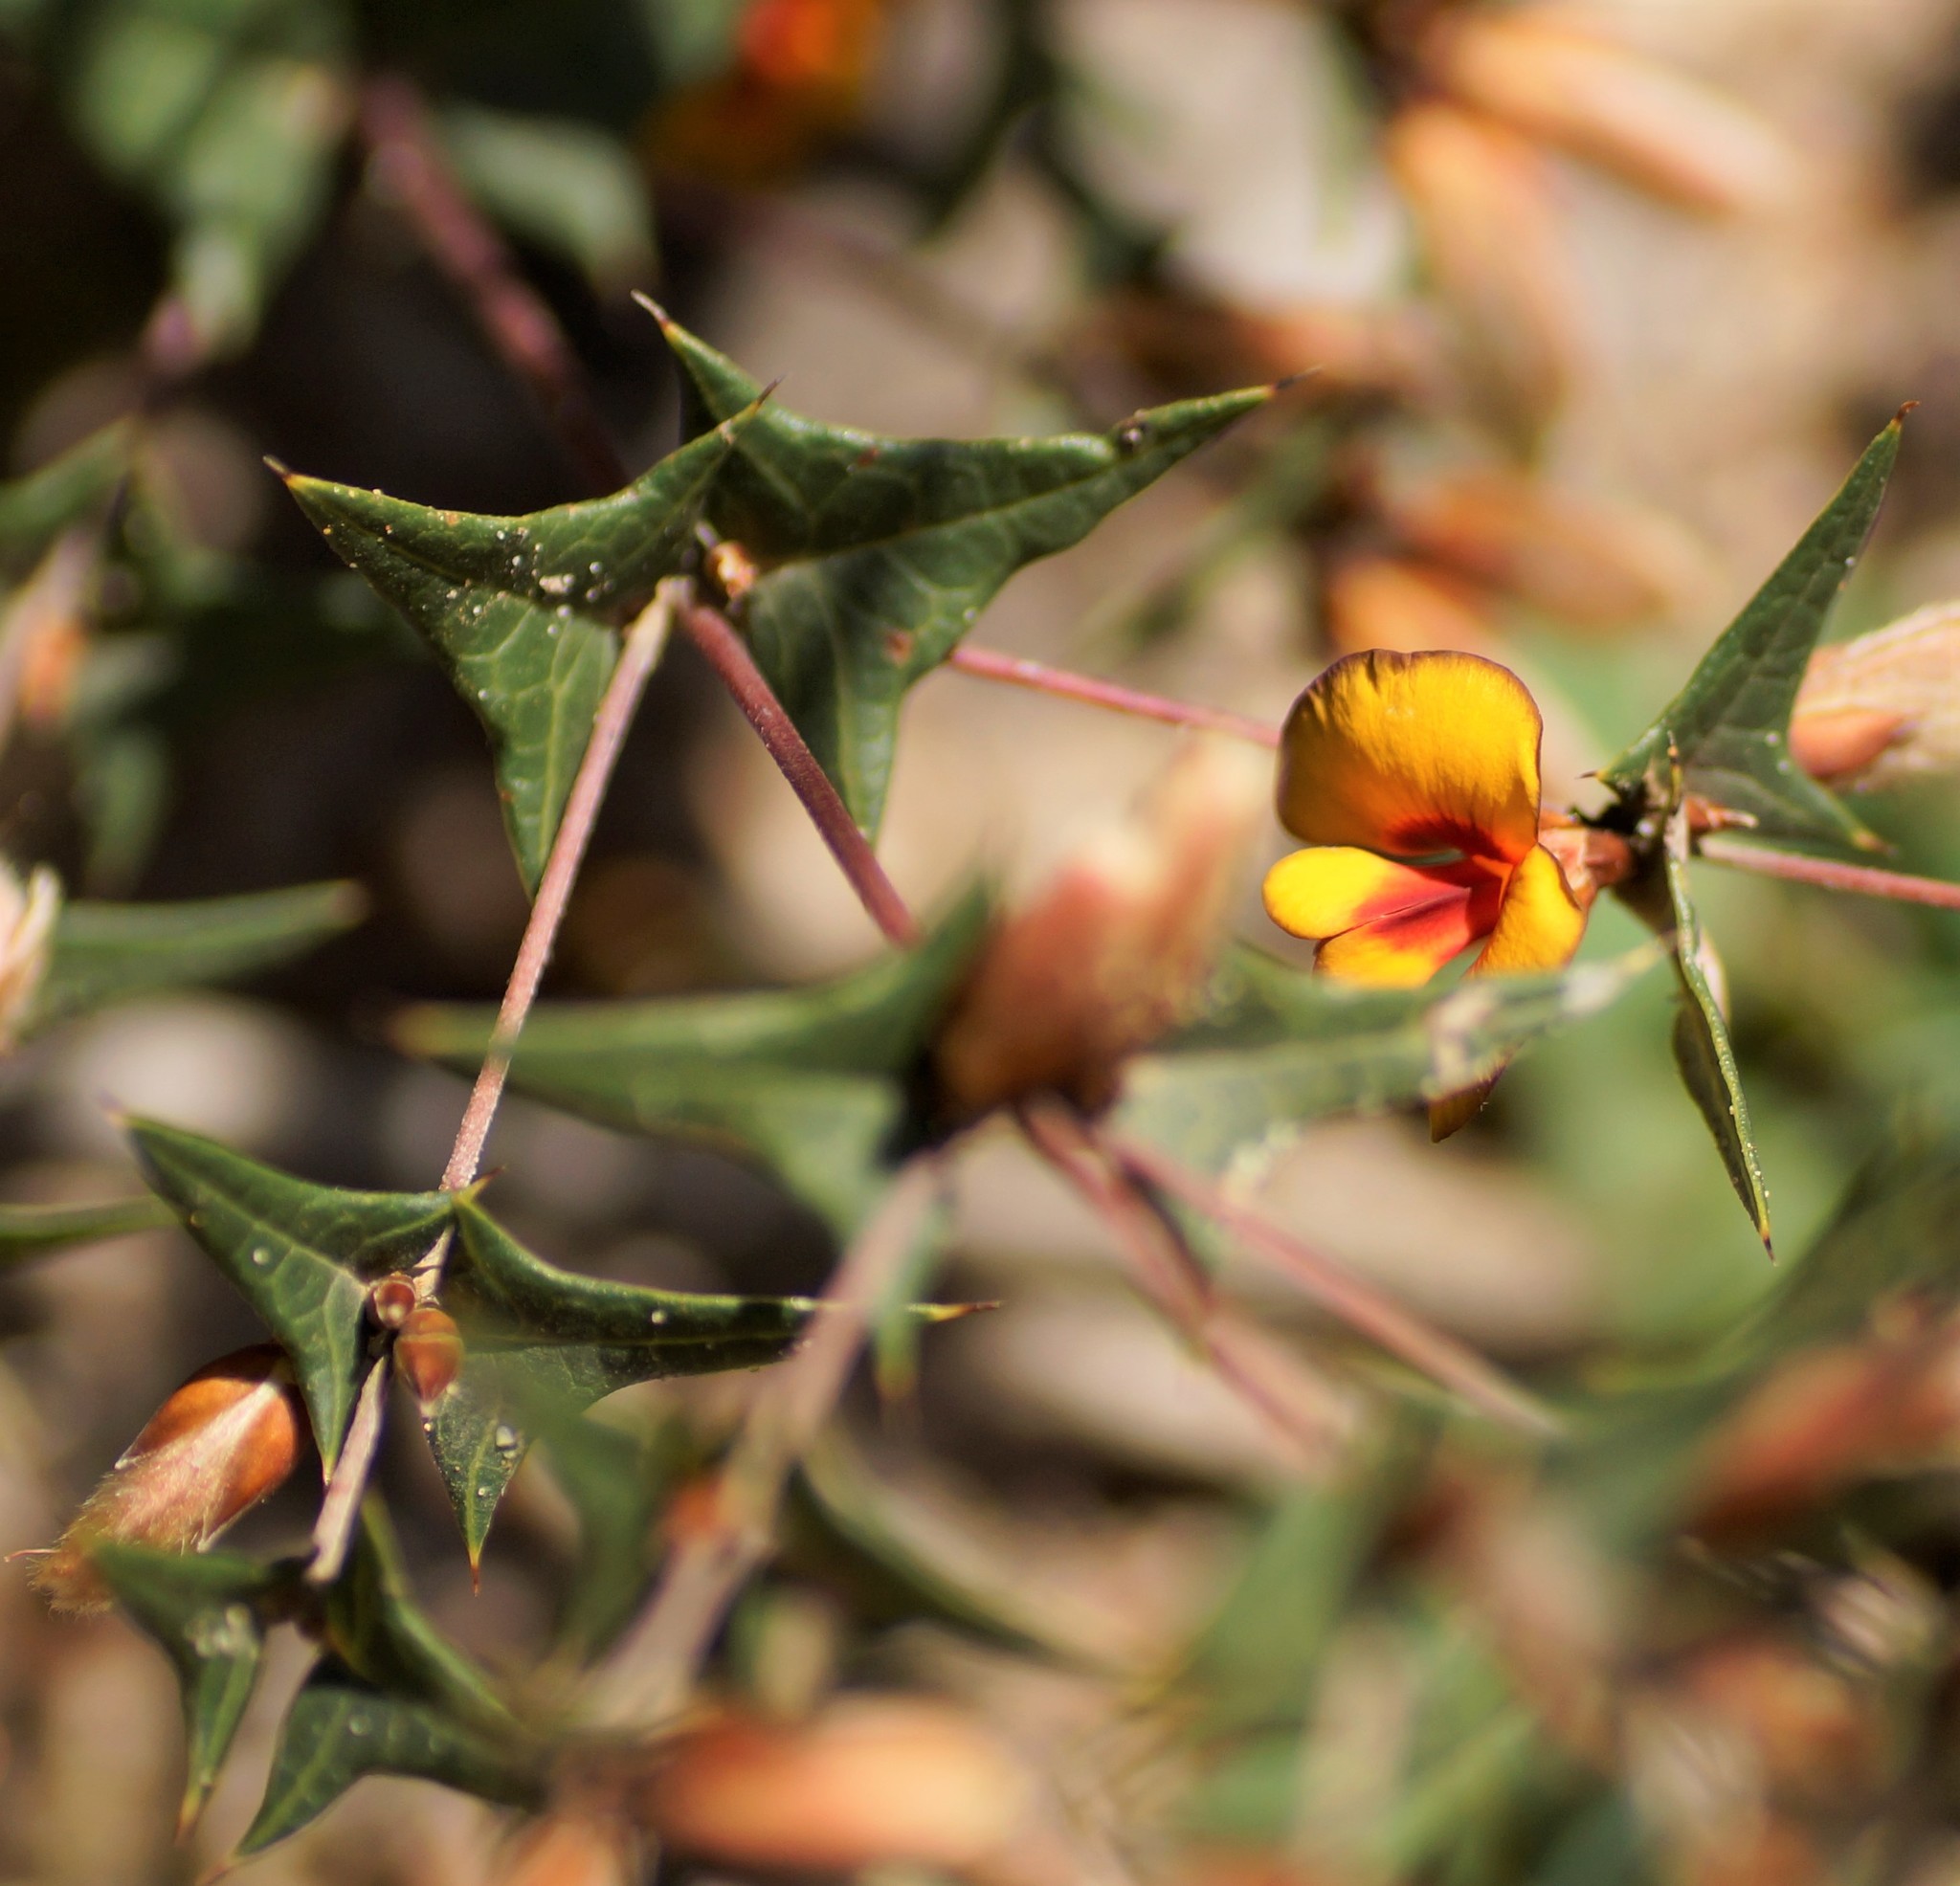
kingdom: Plantae
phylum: Tracheophyta
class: Magnoliopsida
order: Fabales
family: Fabaceae
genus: Platylobium
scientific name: Platylobium obtusangulum
